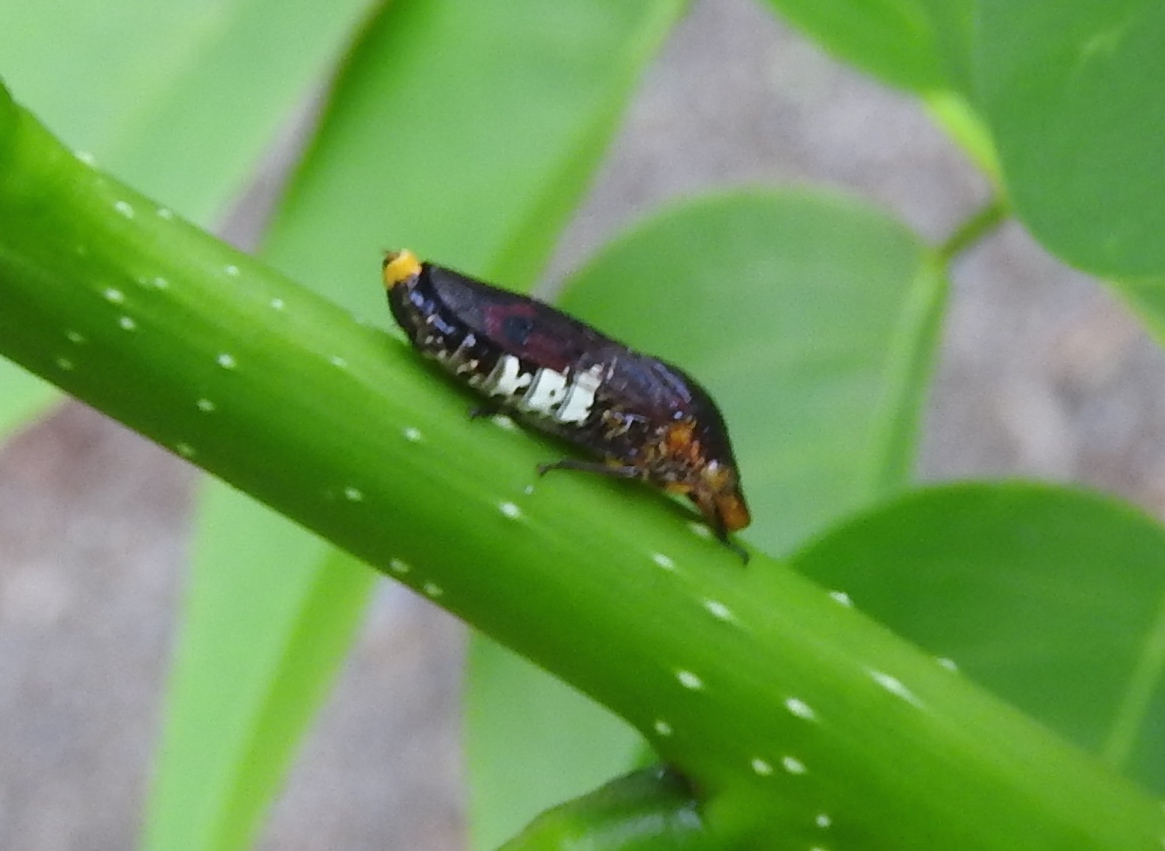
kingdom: Animalia
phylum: Arthropoda
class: Insecta
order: Hemiptera
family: Cicadellidae
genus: Homalodisca
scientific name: Homalodisca ichthyocephala
